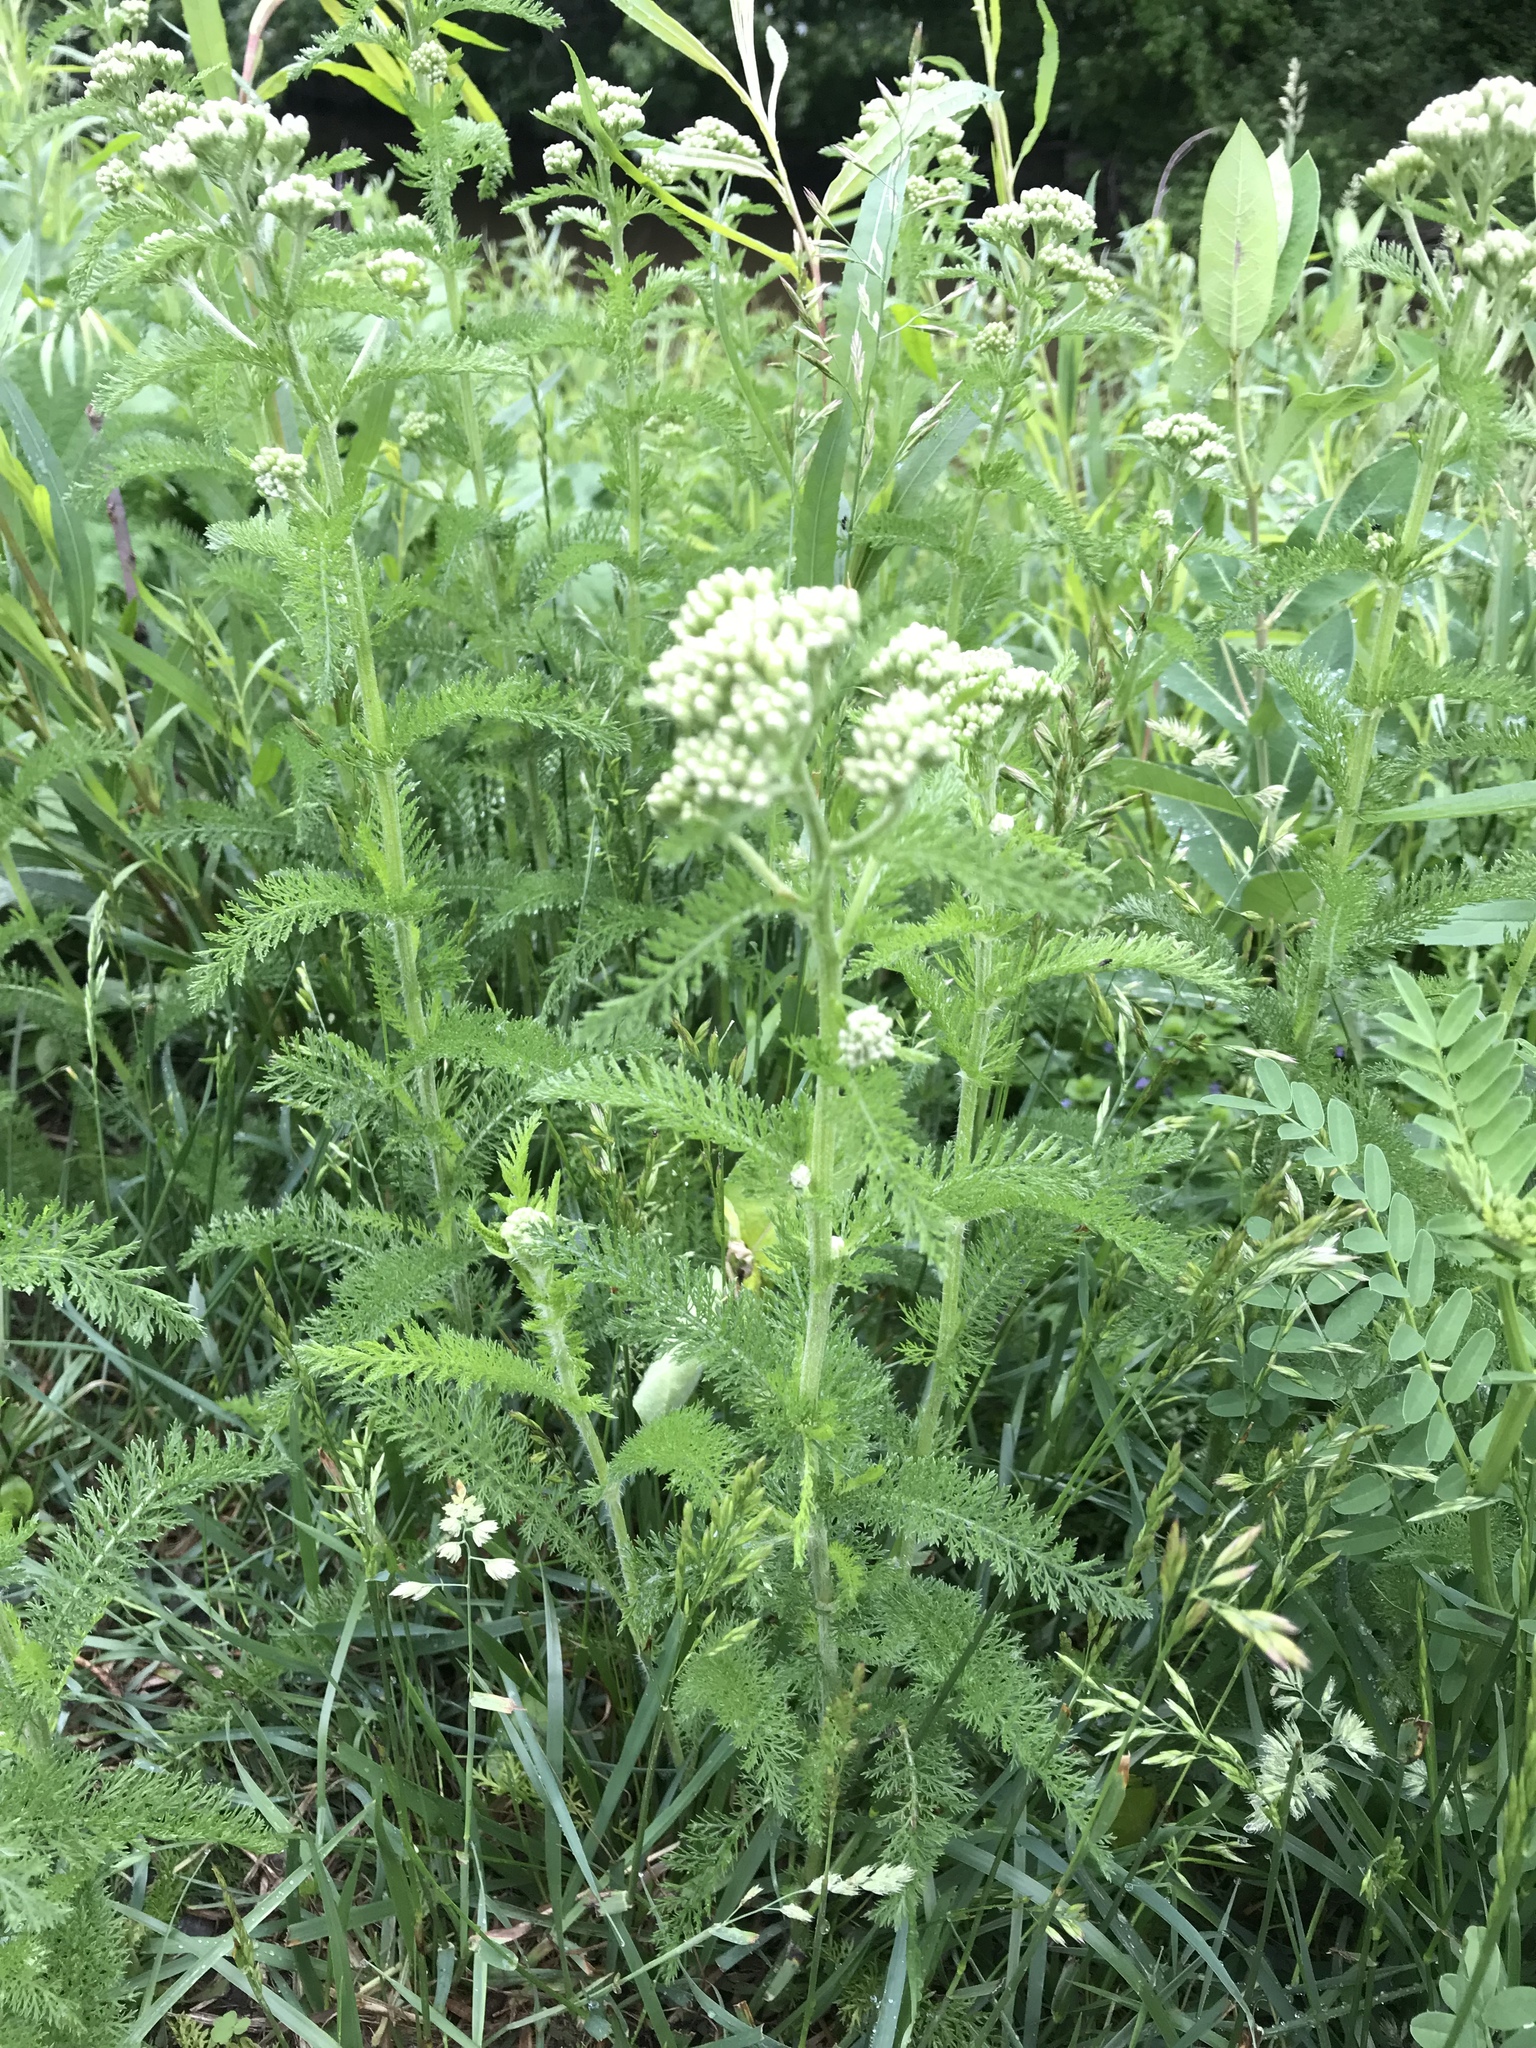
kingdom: Plantae
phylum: Tracheophyta
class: Magnoliopsida
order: Asterales
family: Asteraceae
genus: Achillea
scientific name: Achillea millefolium
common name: Yarrow
